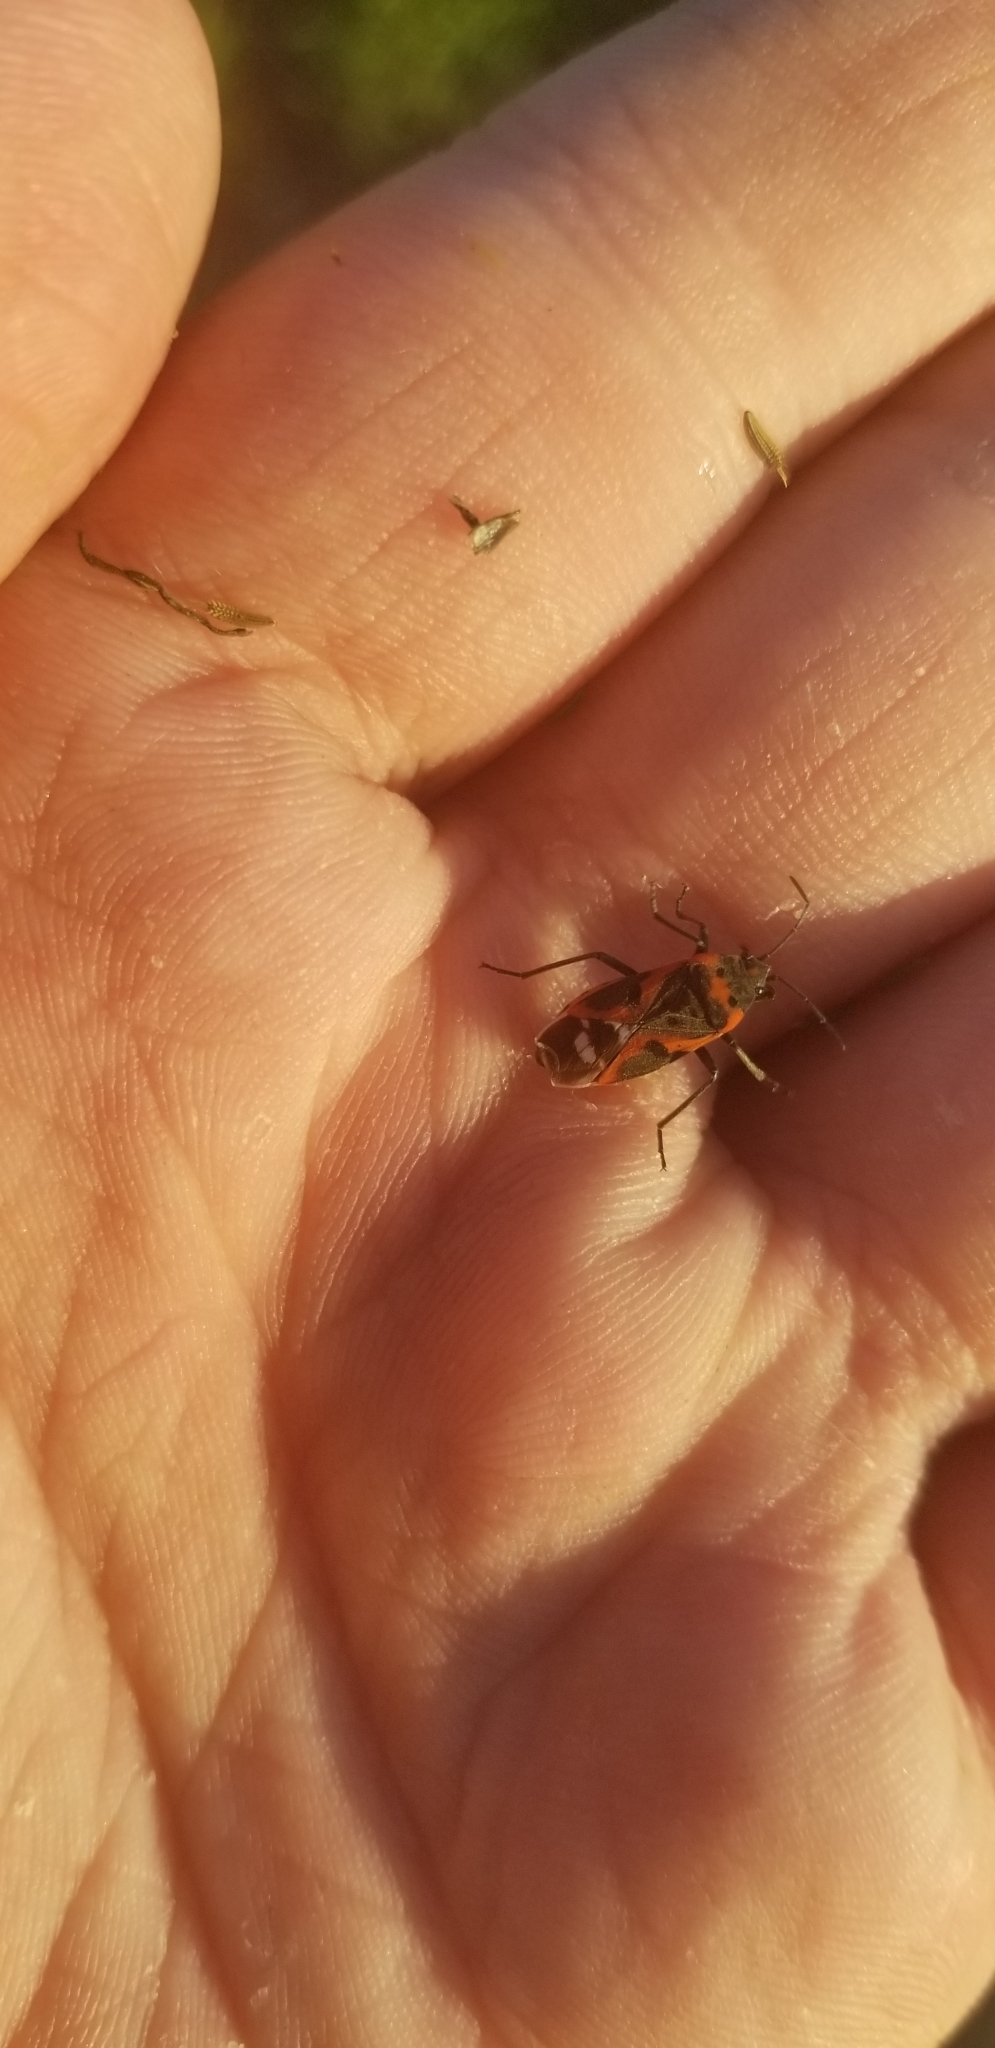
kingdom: Animalia
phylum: Arthropoda
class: Insecta
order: Hemiptera
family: Lygaeidae
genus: Lygaeus
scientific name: Lygaeus kalmii
